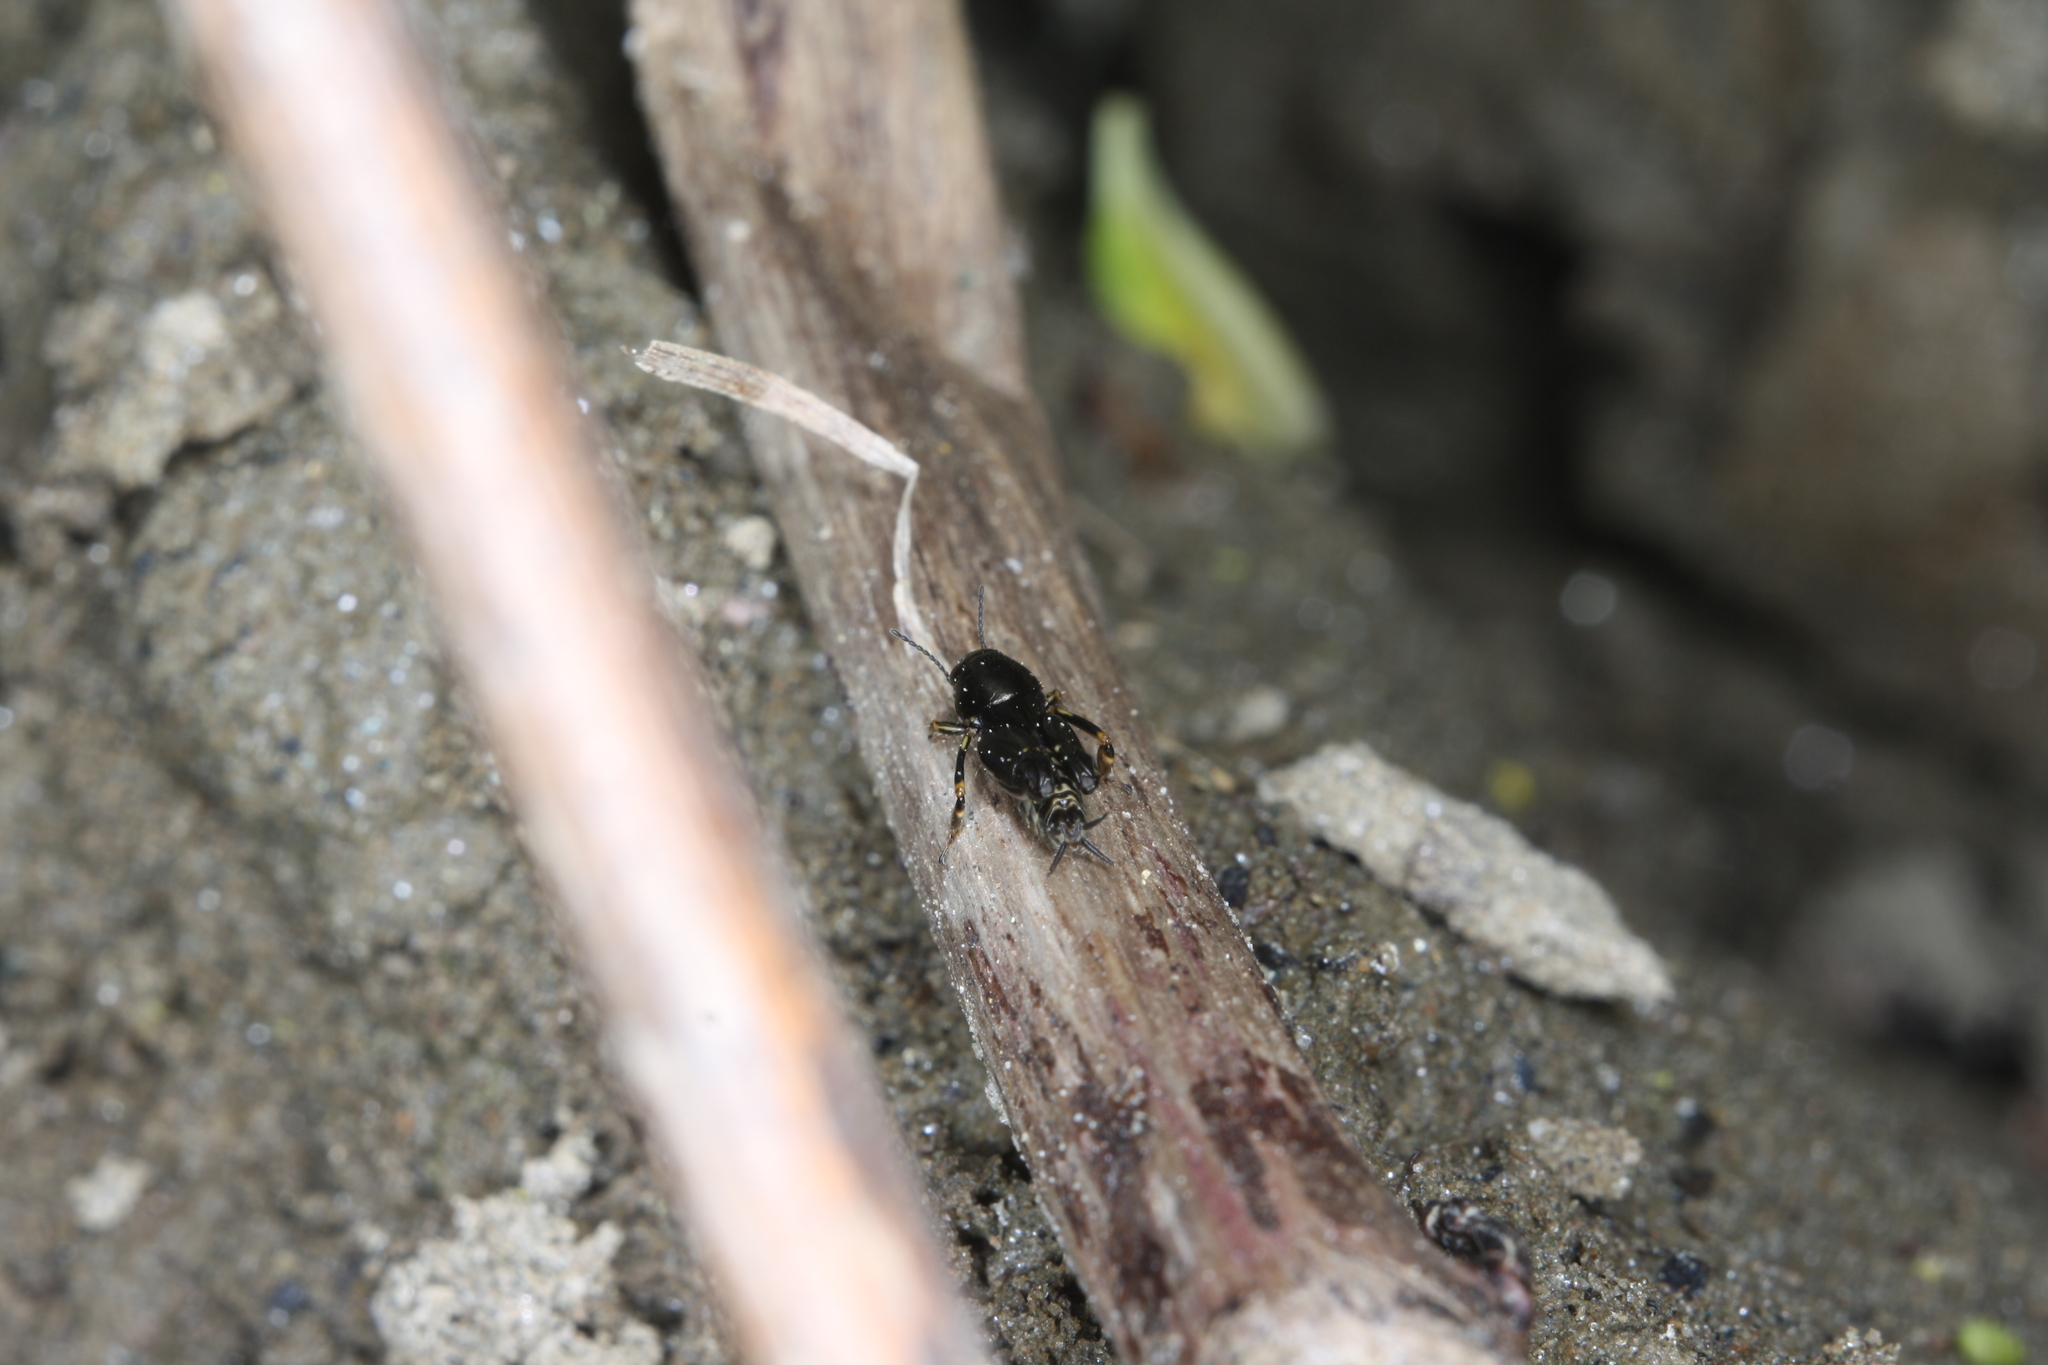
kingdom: Animalia
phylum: Arthropoda
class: Insecta
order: Orthoptera
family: Tridactylidae
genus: Xya
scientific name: Xya pfaendleri
